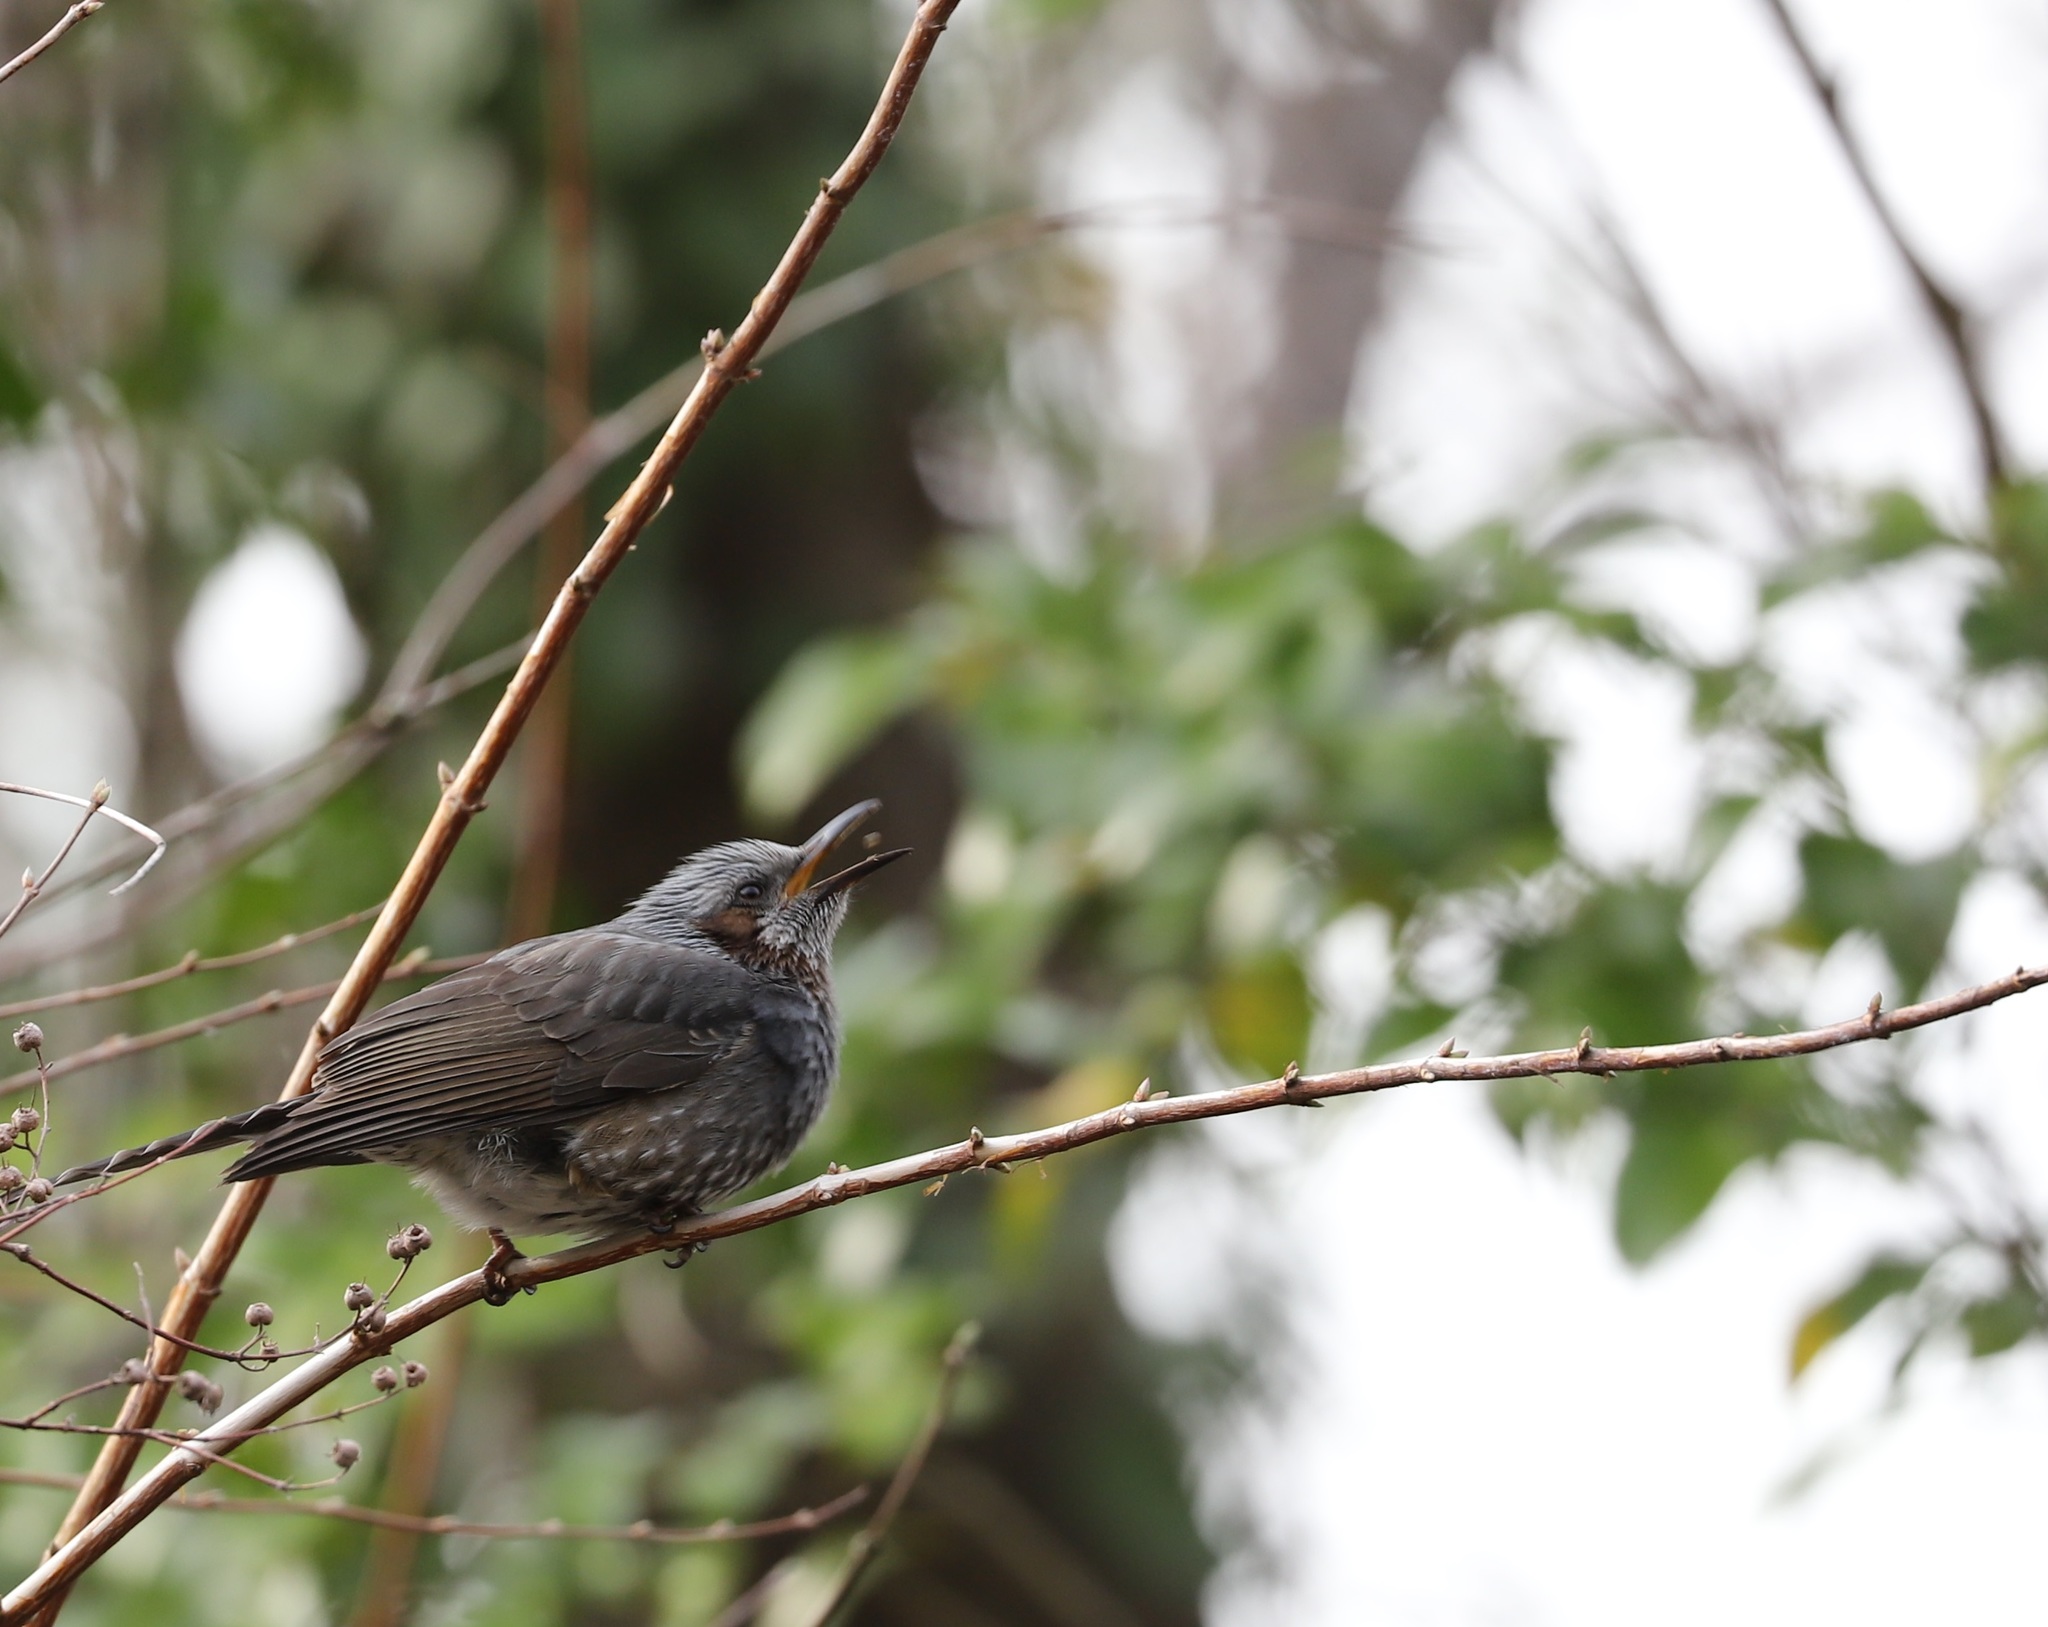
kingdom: Animalia
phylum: Chordata
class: Aves
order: Passeriformes
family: Pycnonotidae
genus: Hypsipetes
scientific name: Hypsipetes amaurotis
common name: Brown-eared bulbul
